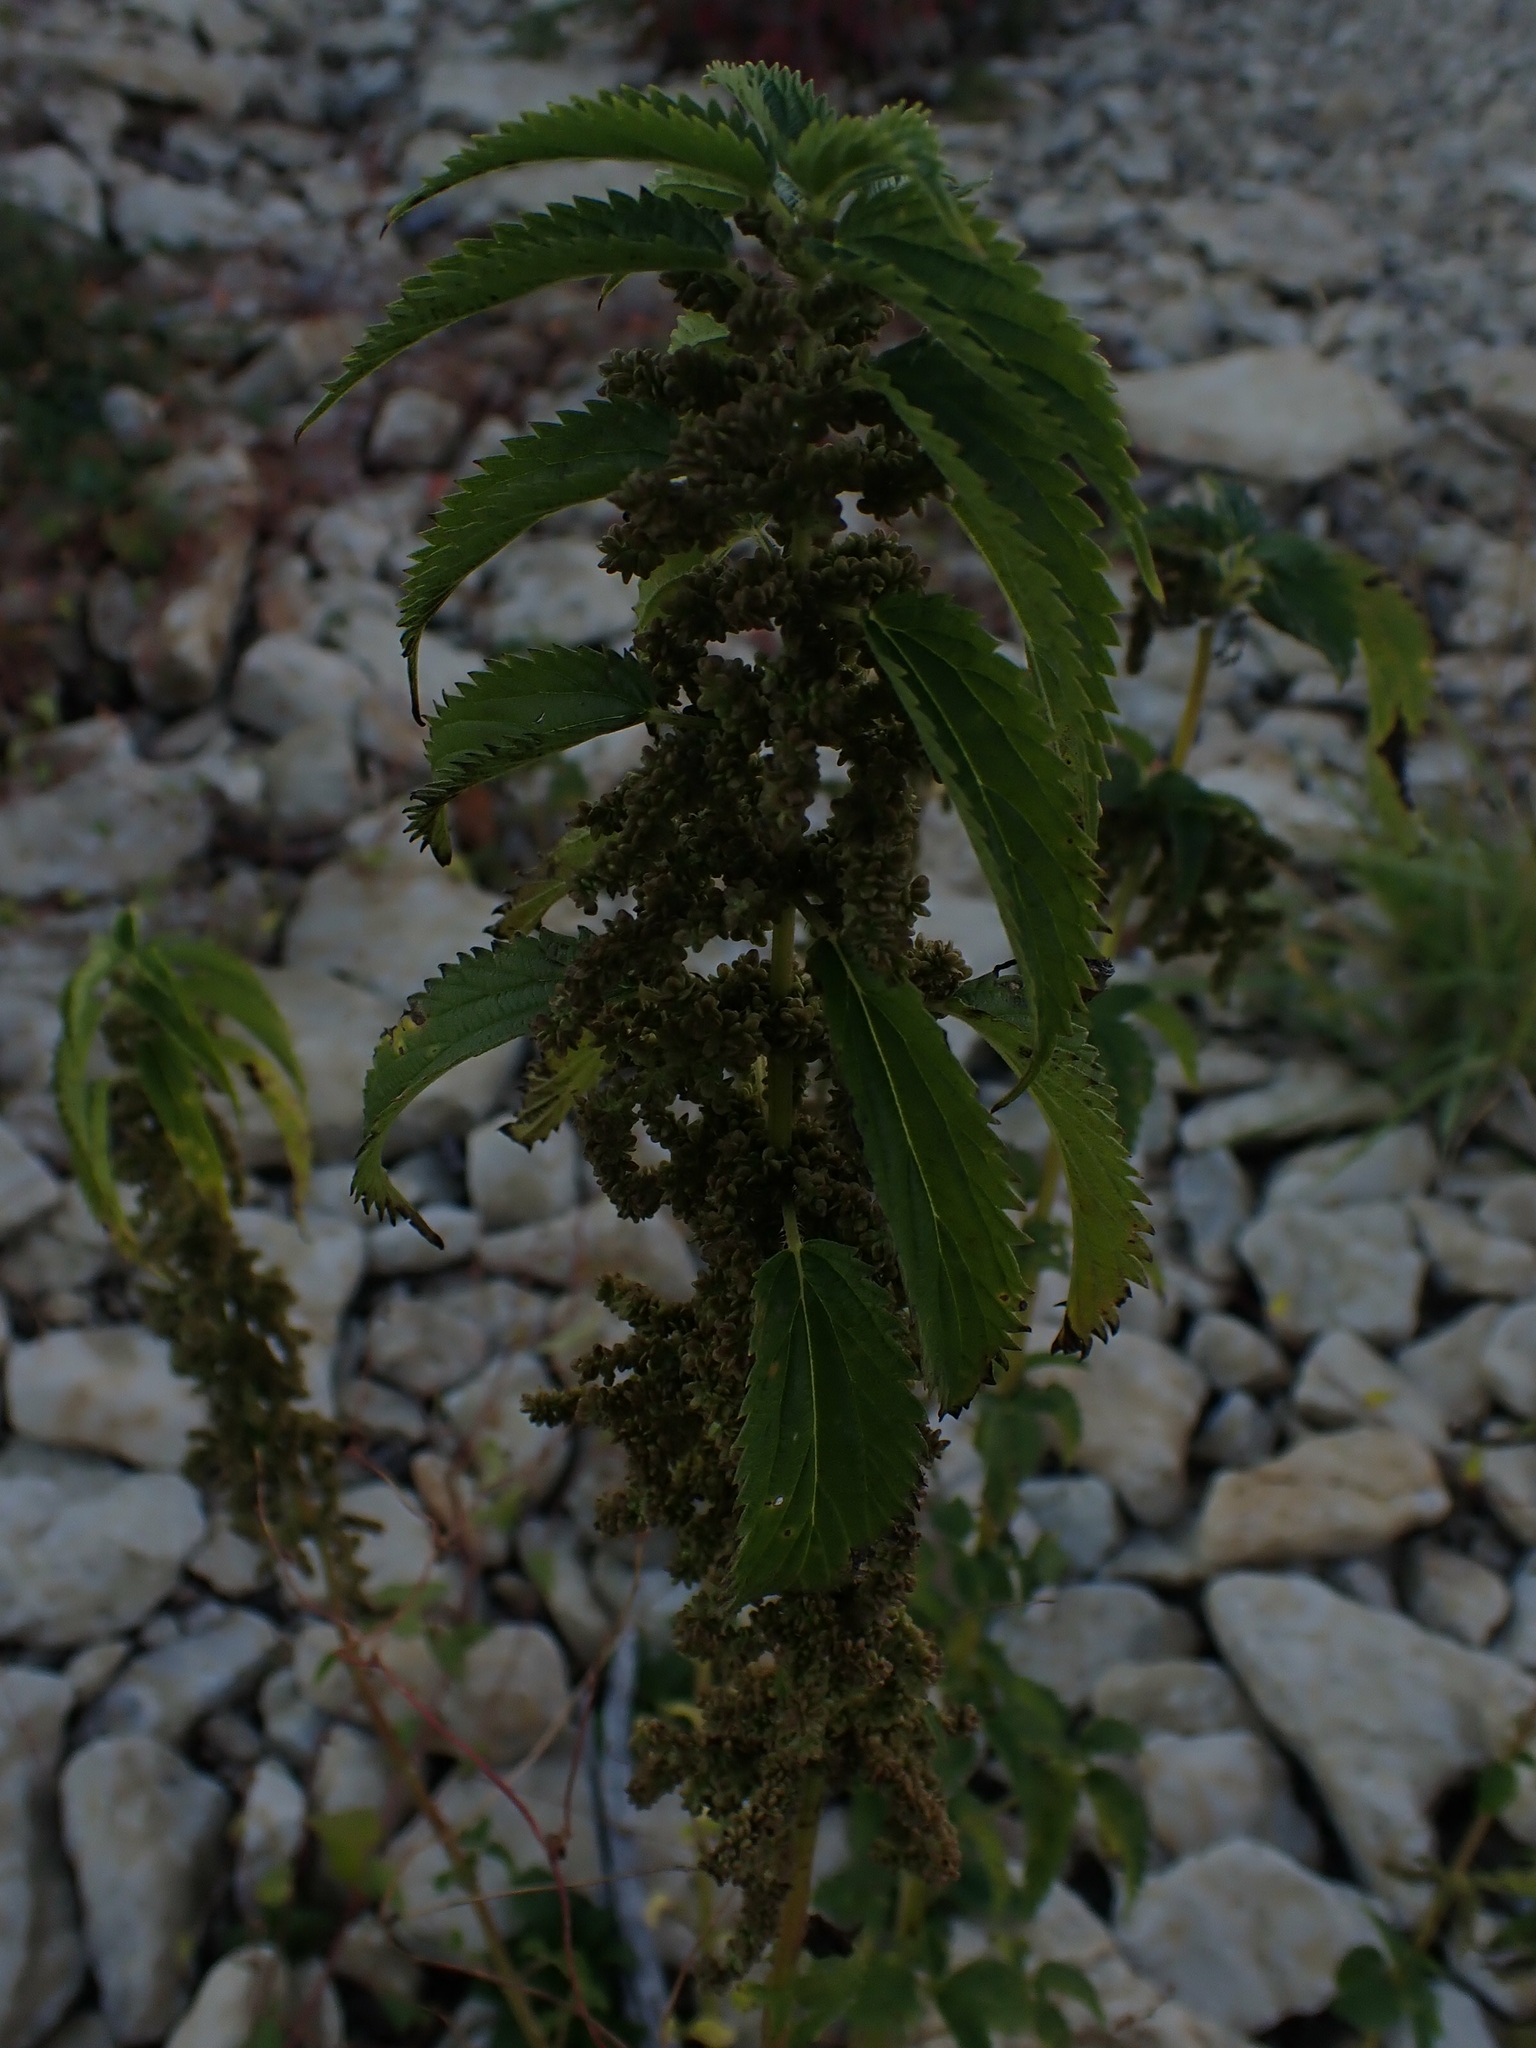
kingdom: Plantae
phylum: Tracheophyta
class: Magnoliopsida
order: Rosales
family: Urticaceae
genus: Urtica
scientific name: Urtica gracilis
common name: Slender stinging nettle
